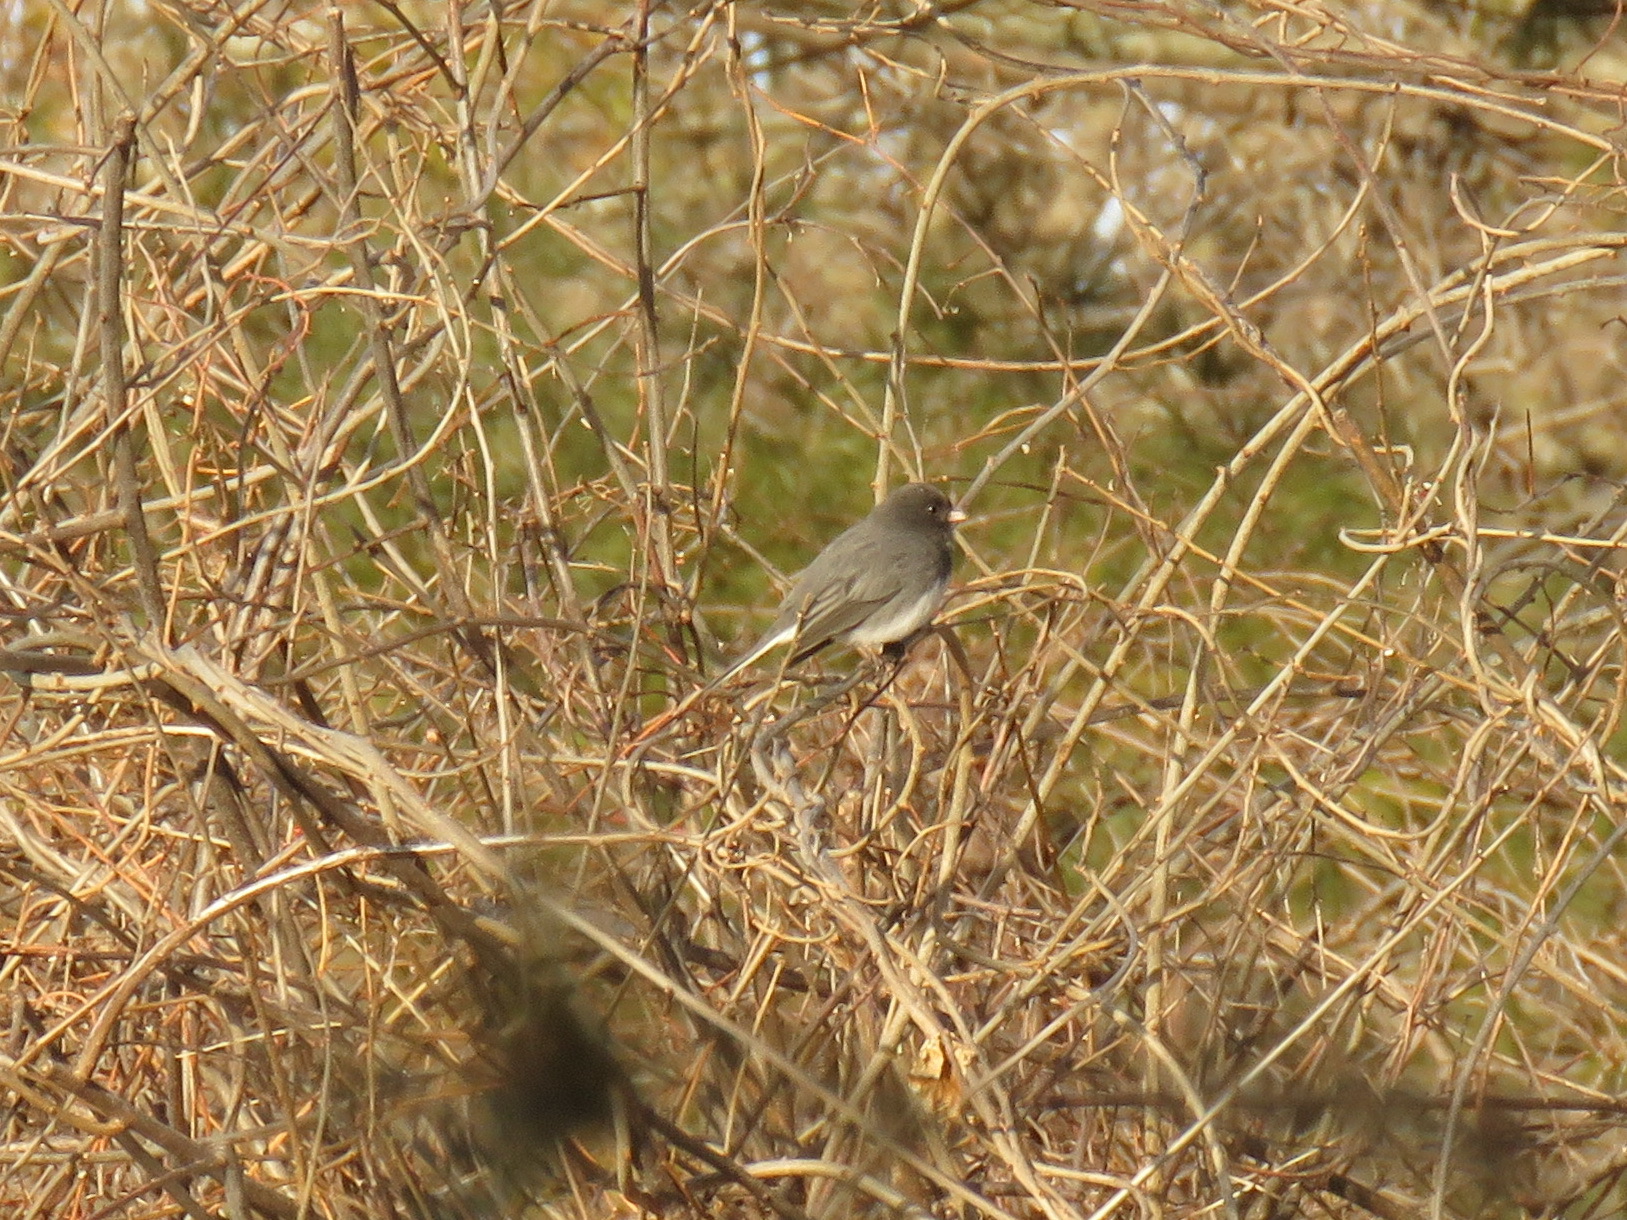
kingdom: Animalia
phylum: Chordata
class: Aves
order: Passeriformes
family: Passerellidae
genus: Junco
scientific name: Junco hyemalis
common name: Dark-eyed junco
